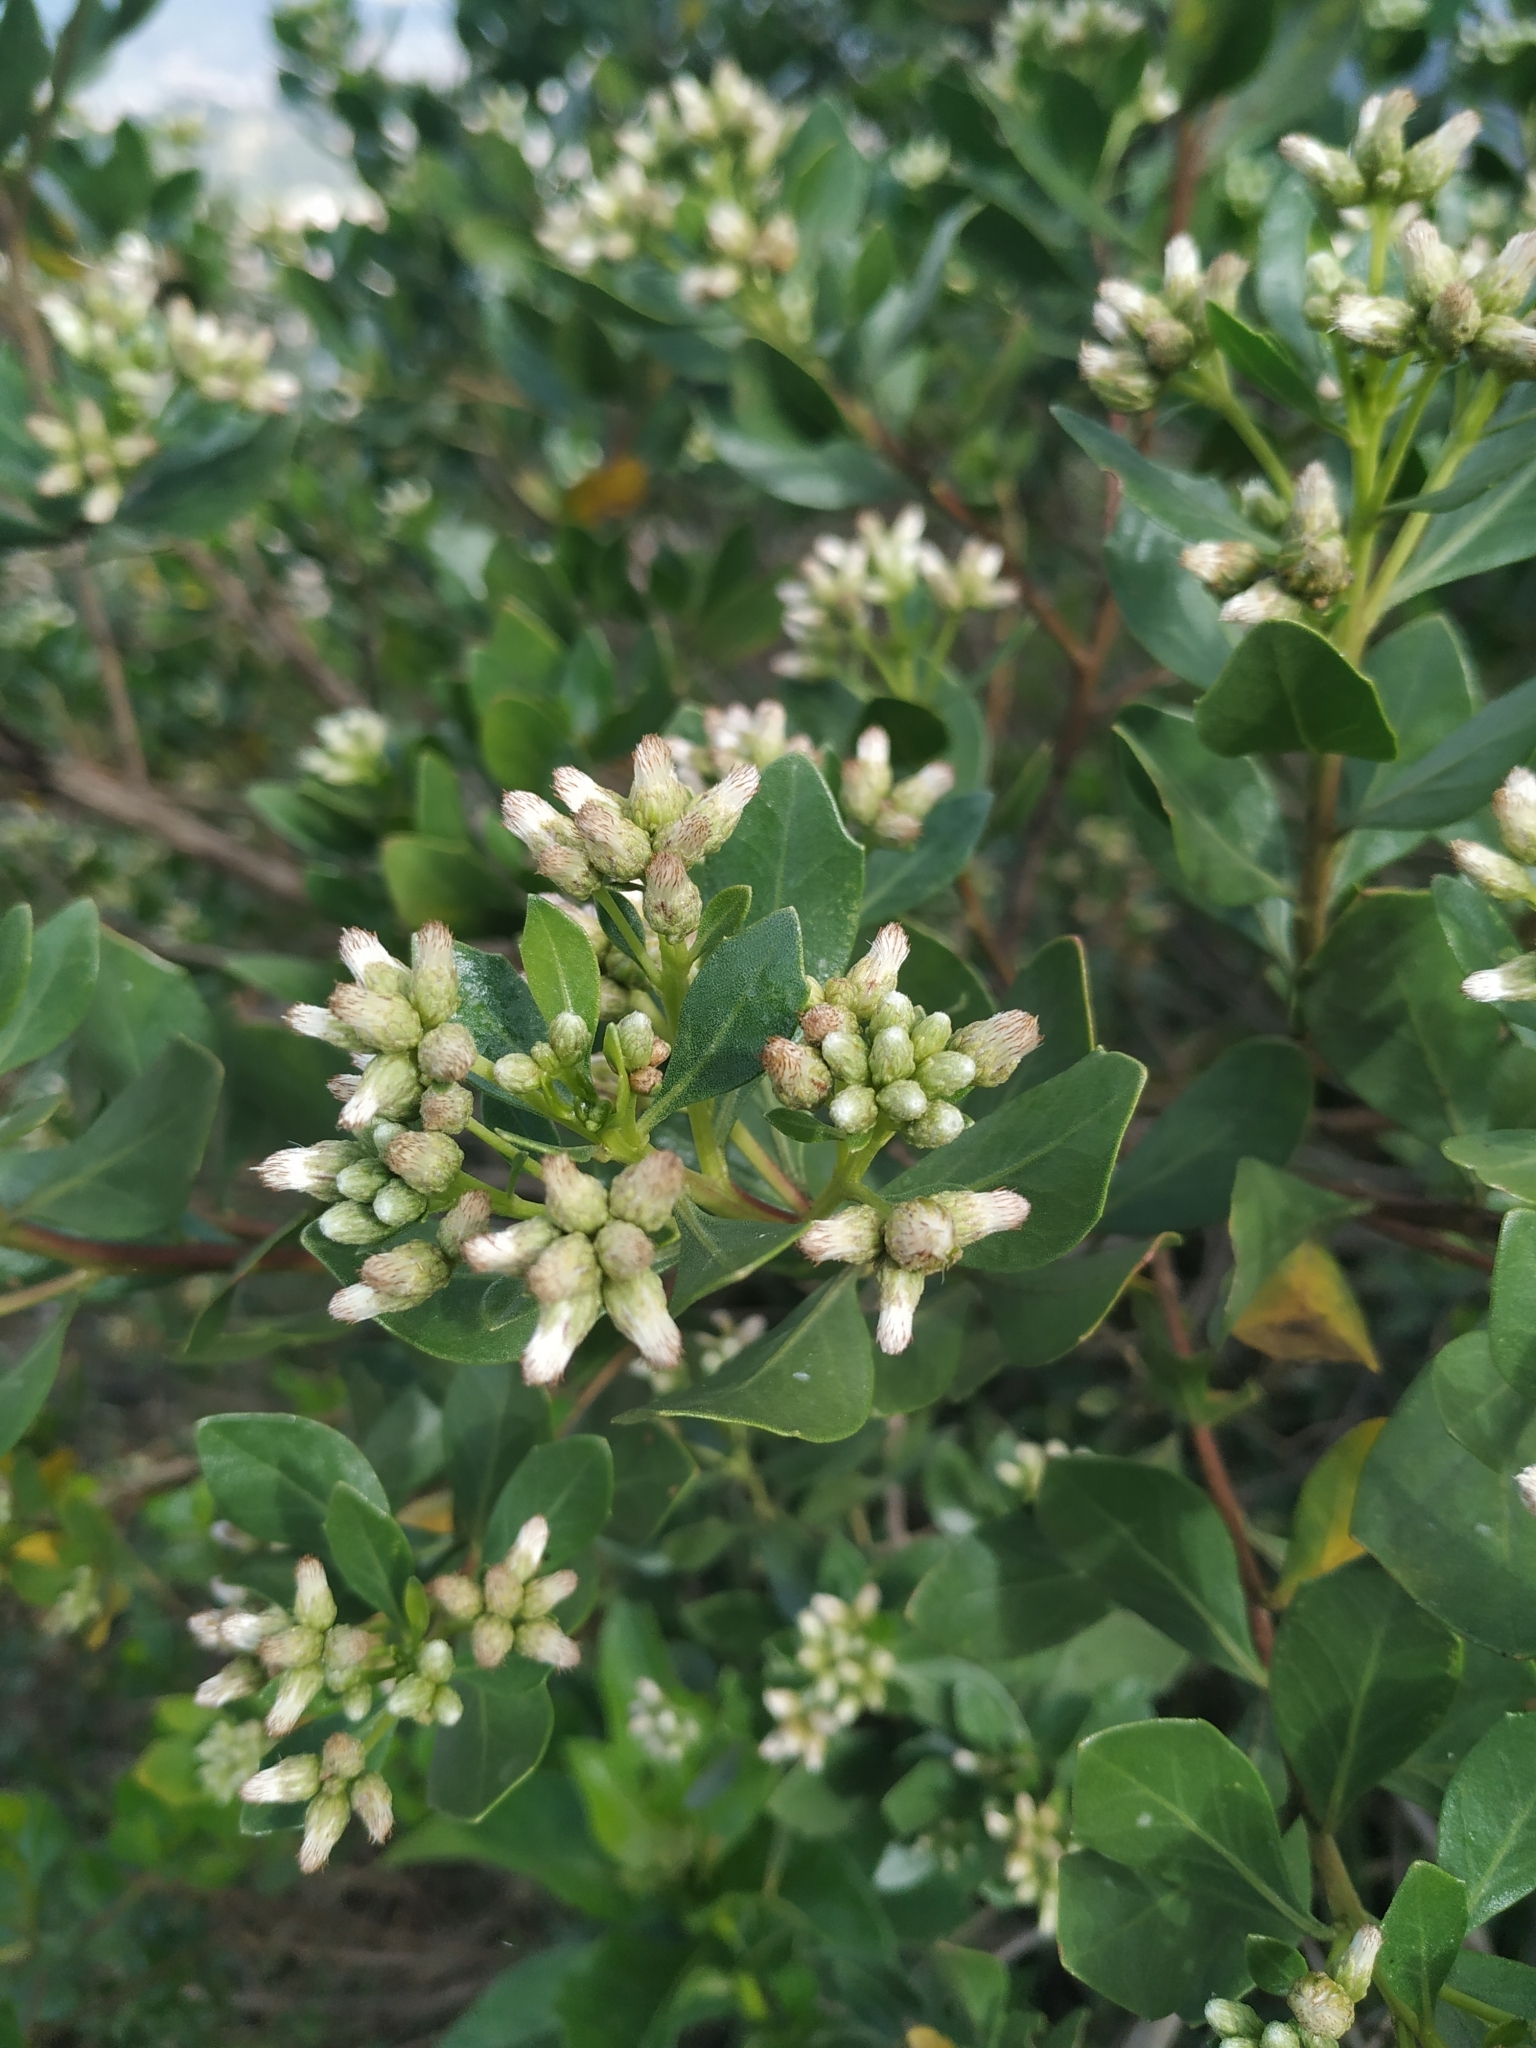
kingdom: Plantae
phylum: Tracheophyta
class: Magnoliopsida
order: Asterales
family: Asteraceae
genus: Baccharis
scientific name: Baccharis macrantha
